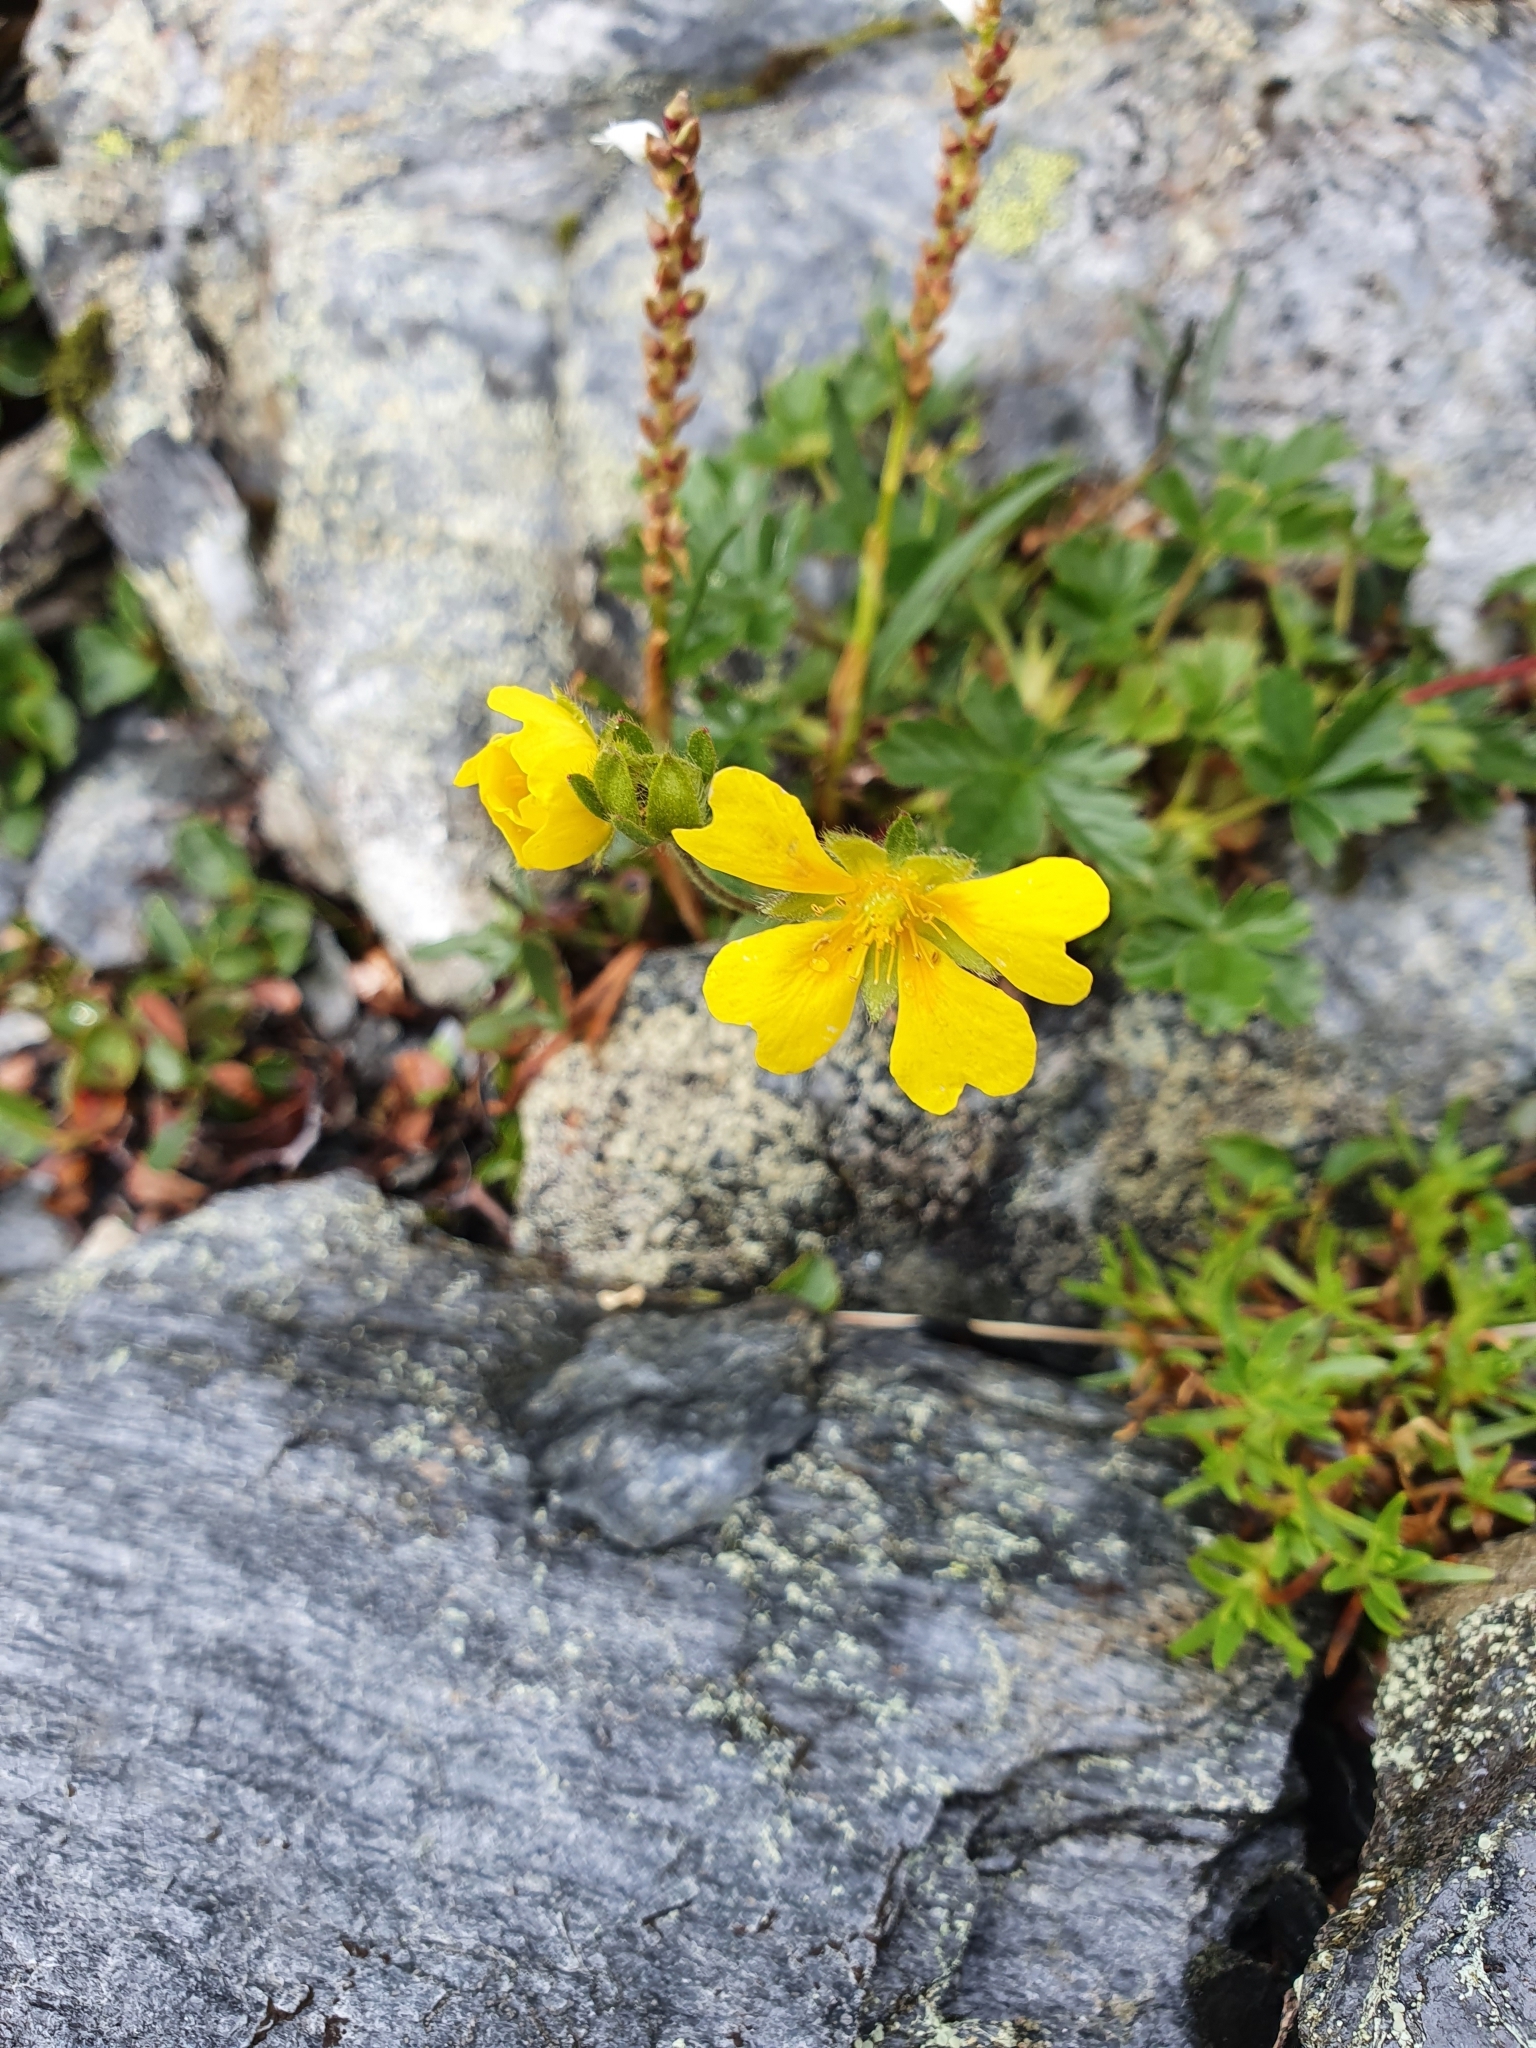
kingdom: Plantae
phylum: Tracheophyta
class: Magnoliopsida
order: Rosales
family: Rosaceae
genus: Potentilla
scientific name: Potentilla crantzii
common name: Alpine cinquefoil
